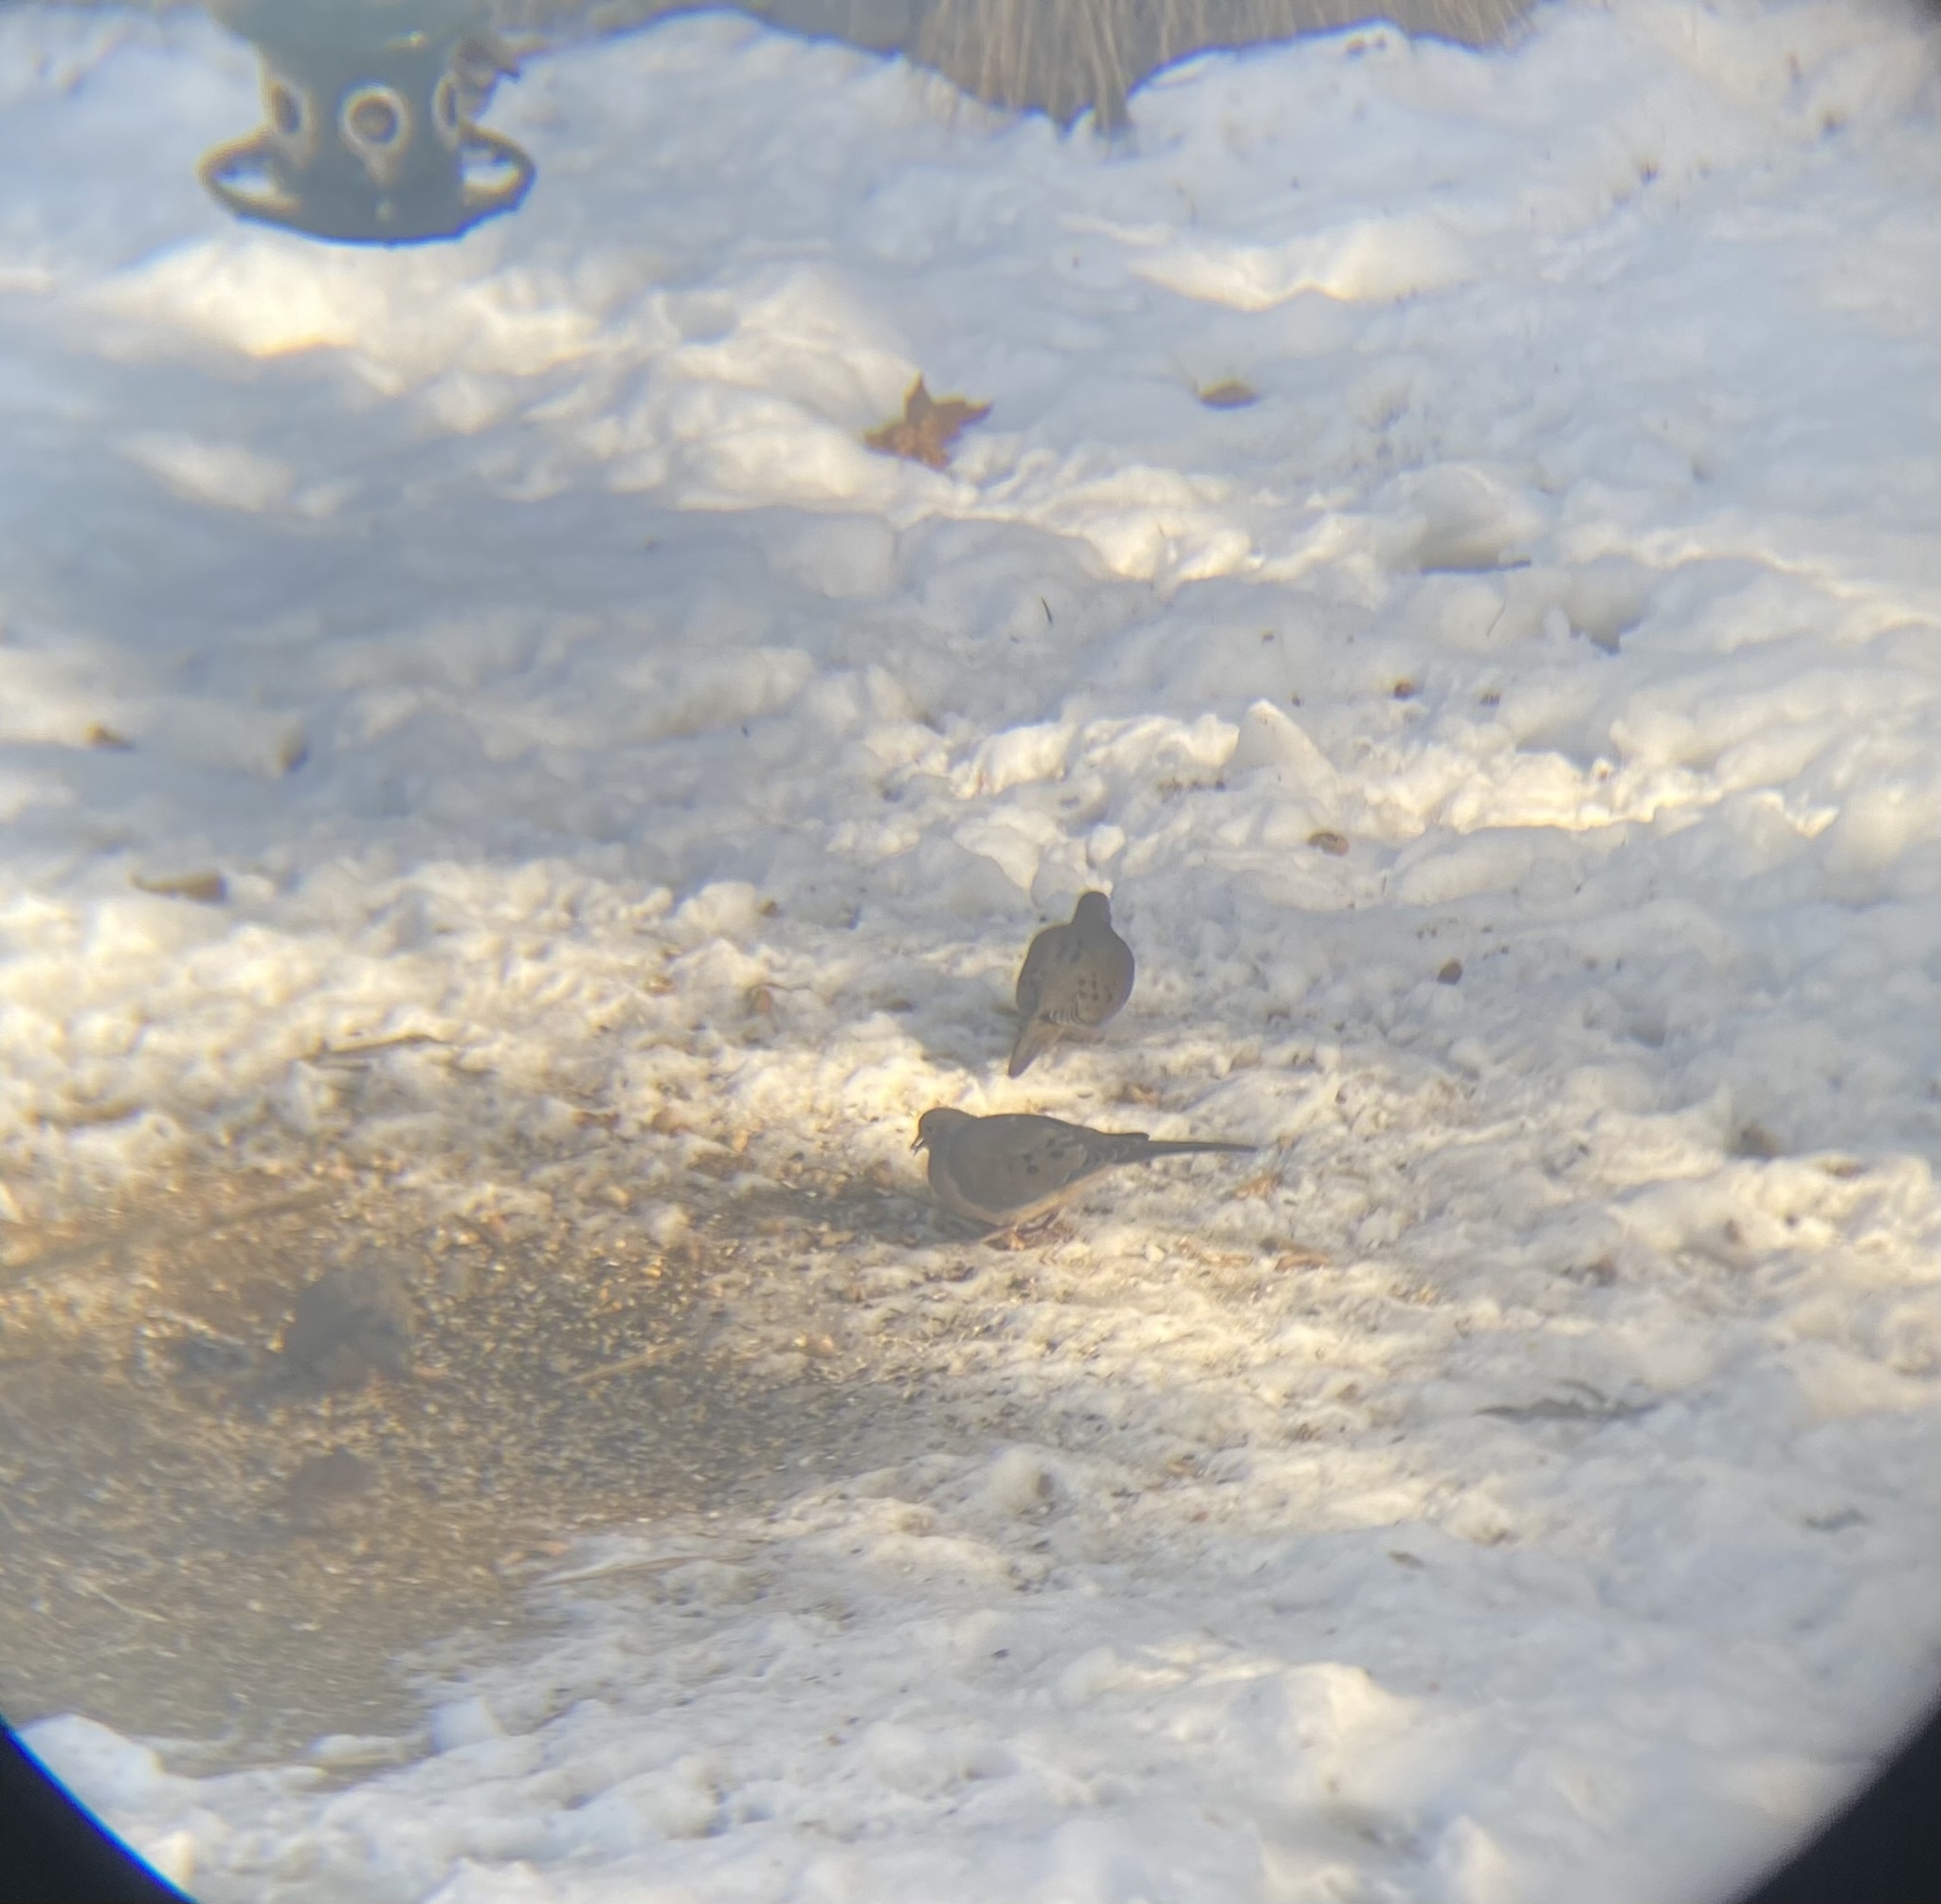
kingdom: Animalia
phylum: Chordata
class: Aves
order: Columbiformes
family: Columbidae
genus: Zenaida
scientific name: Zenaida macroura
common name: Mourning dove
